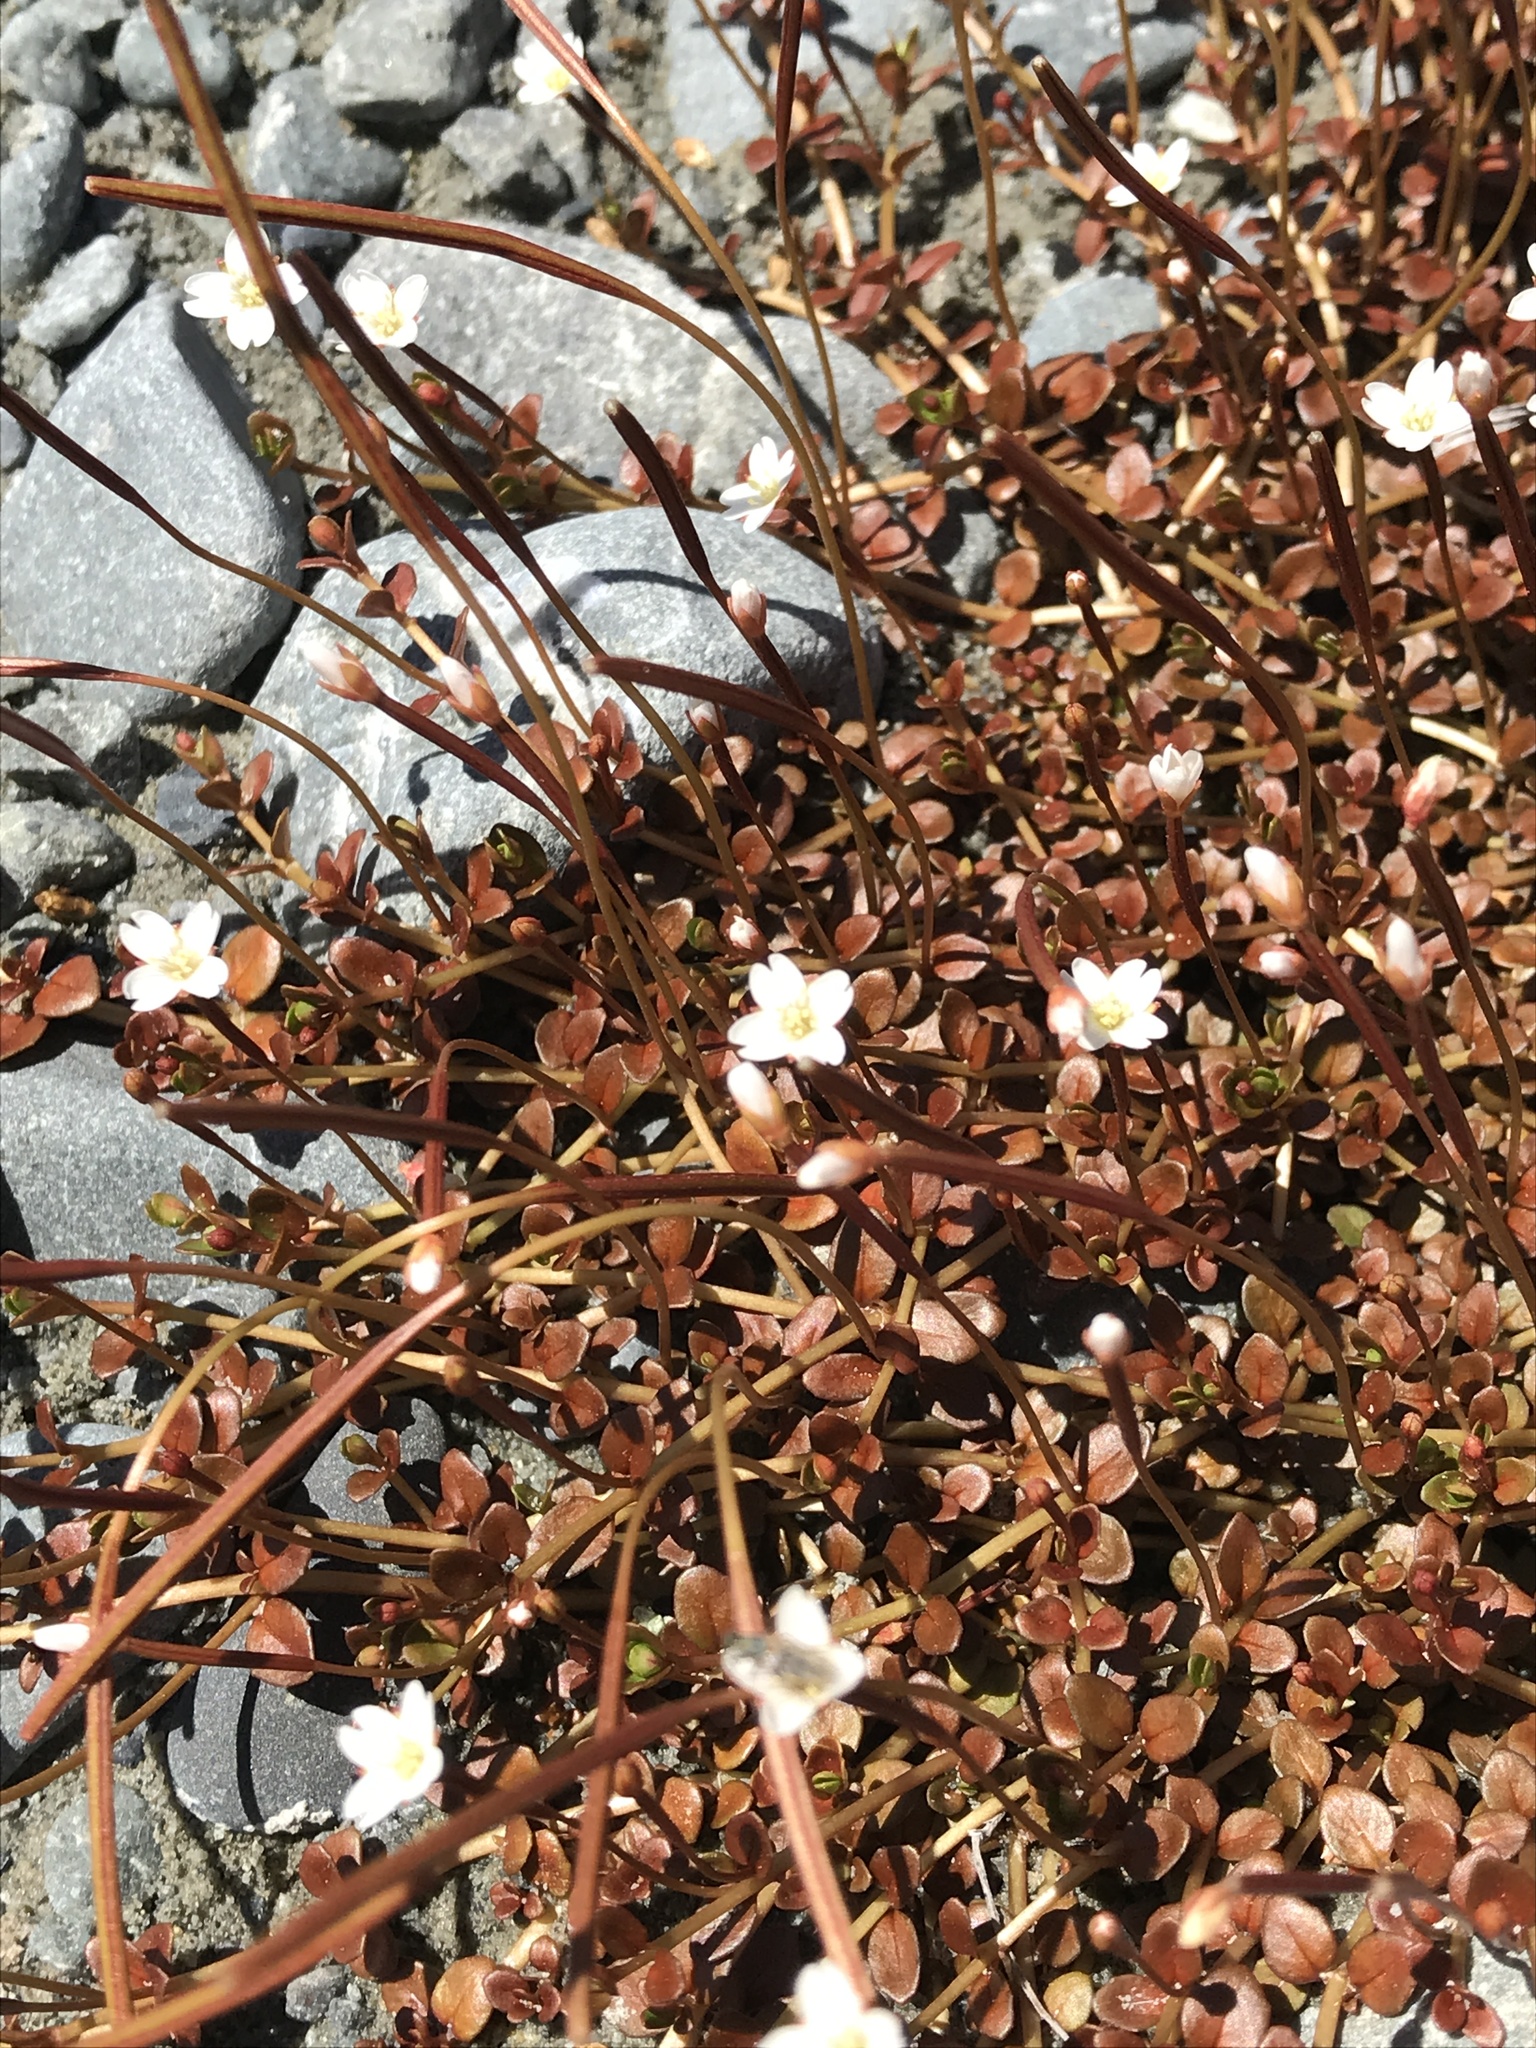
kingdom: Plantae
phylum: Tracheophyta
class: Magnoliopsida
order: Myrtales
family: Onagraceae
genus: Epilobium
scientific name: Epilobium brunnescens
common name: New zealand willowherb
